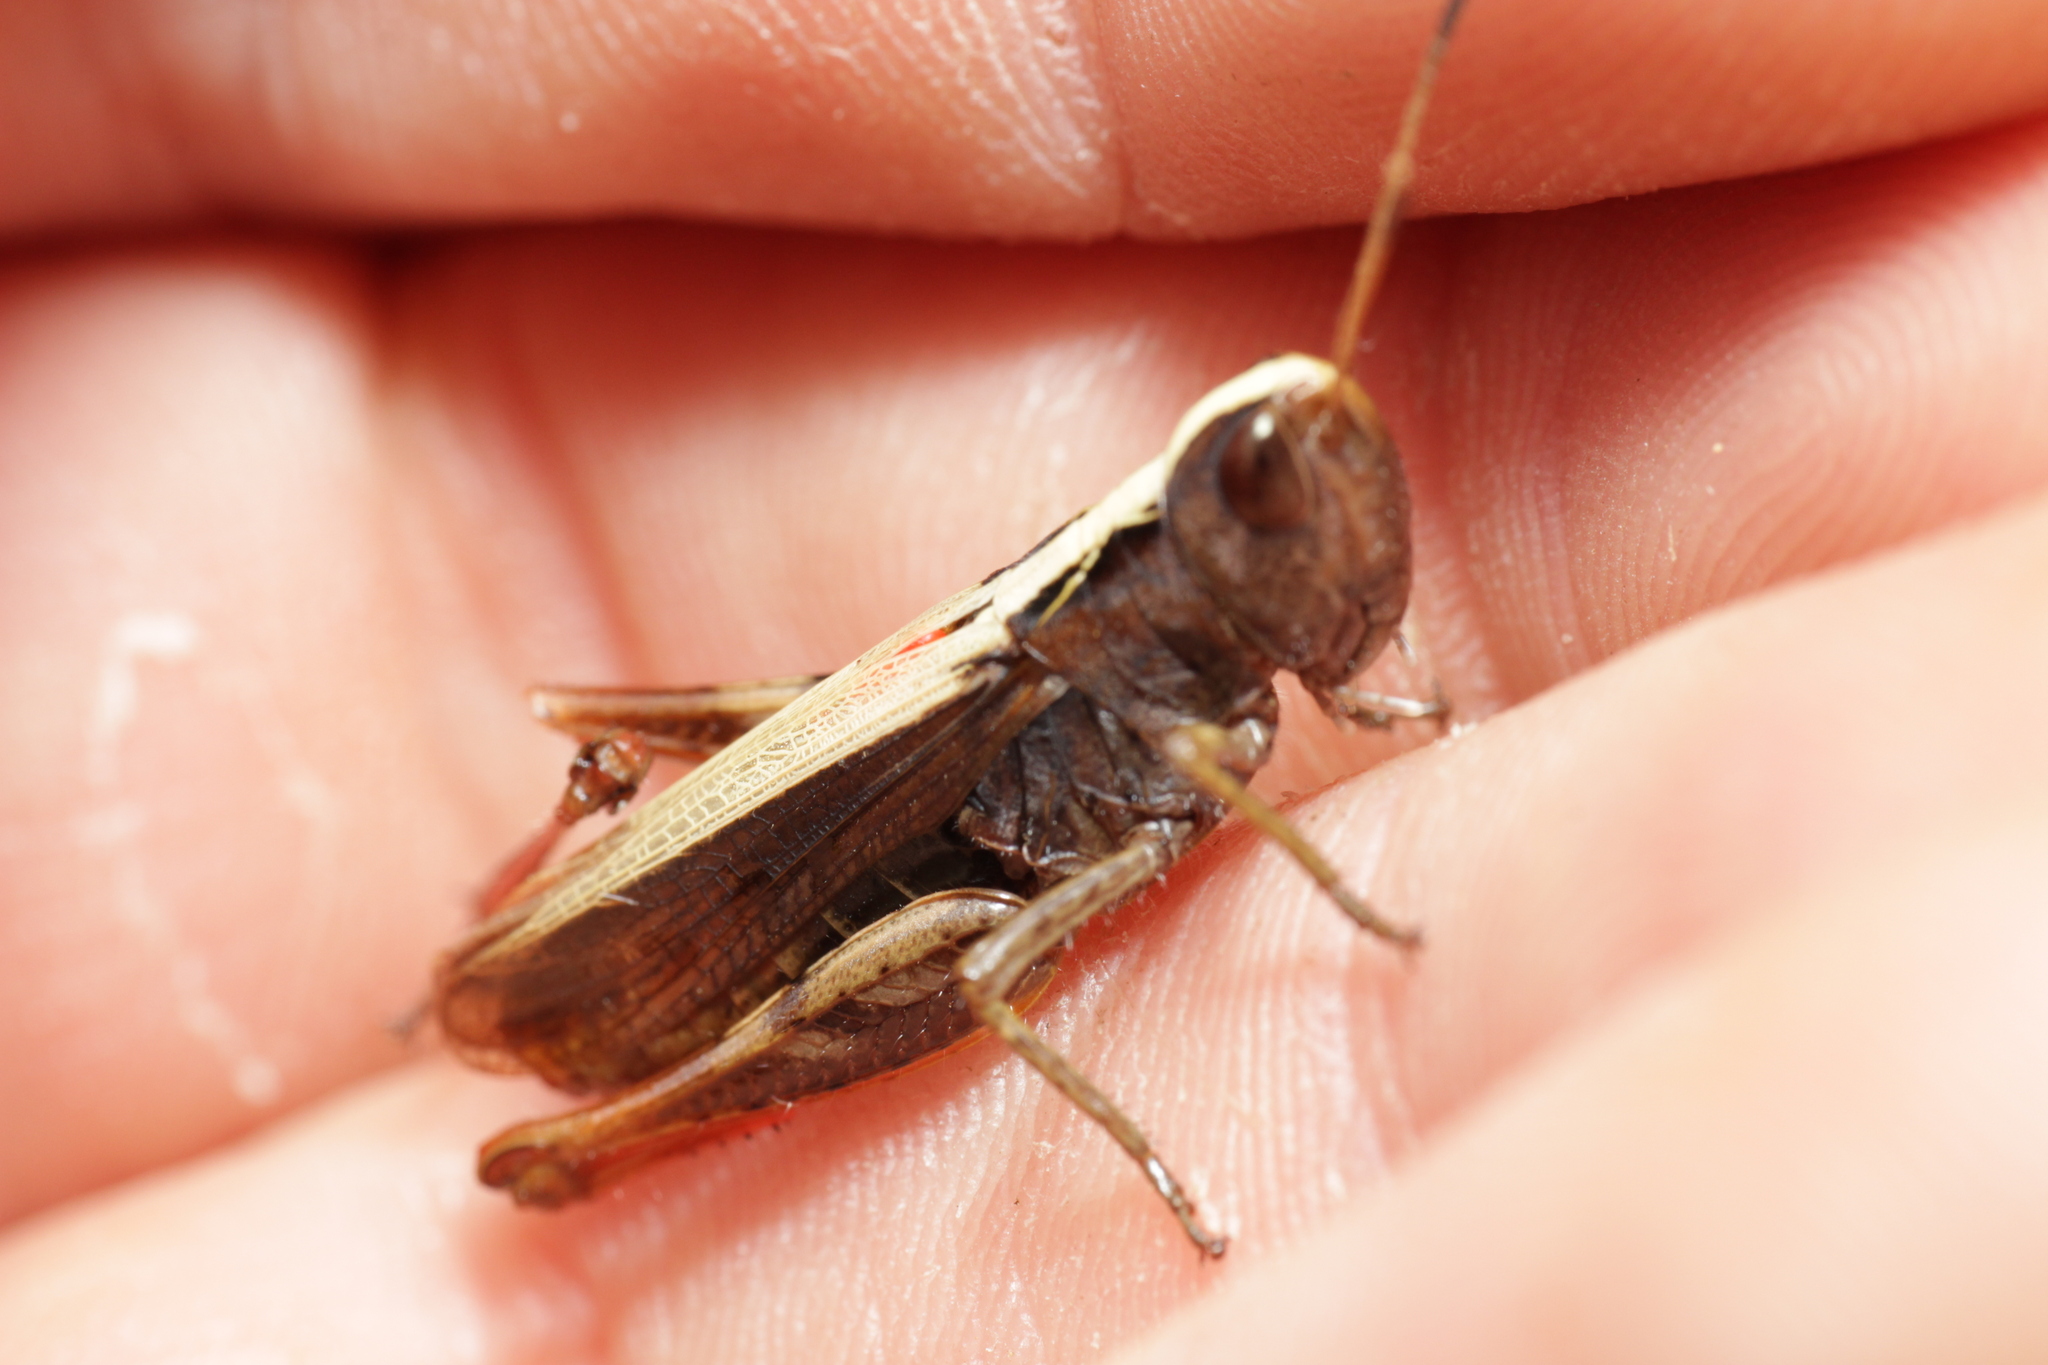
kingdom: Animalia
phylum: Arthropoda
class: Insecta
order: Orthoptera
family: Acrididae
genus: Gomphocerippus
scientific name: Gomphocerippus rufus
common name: Rufous grasshopper
